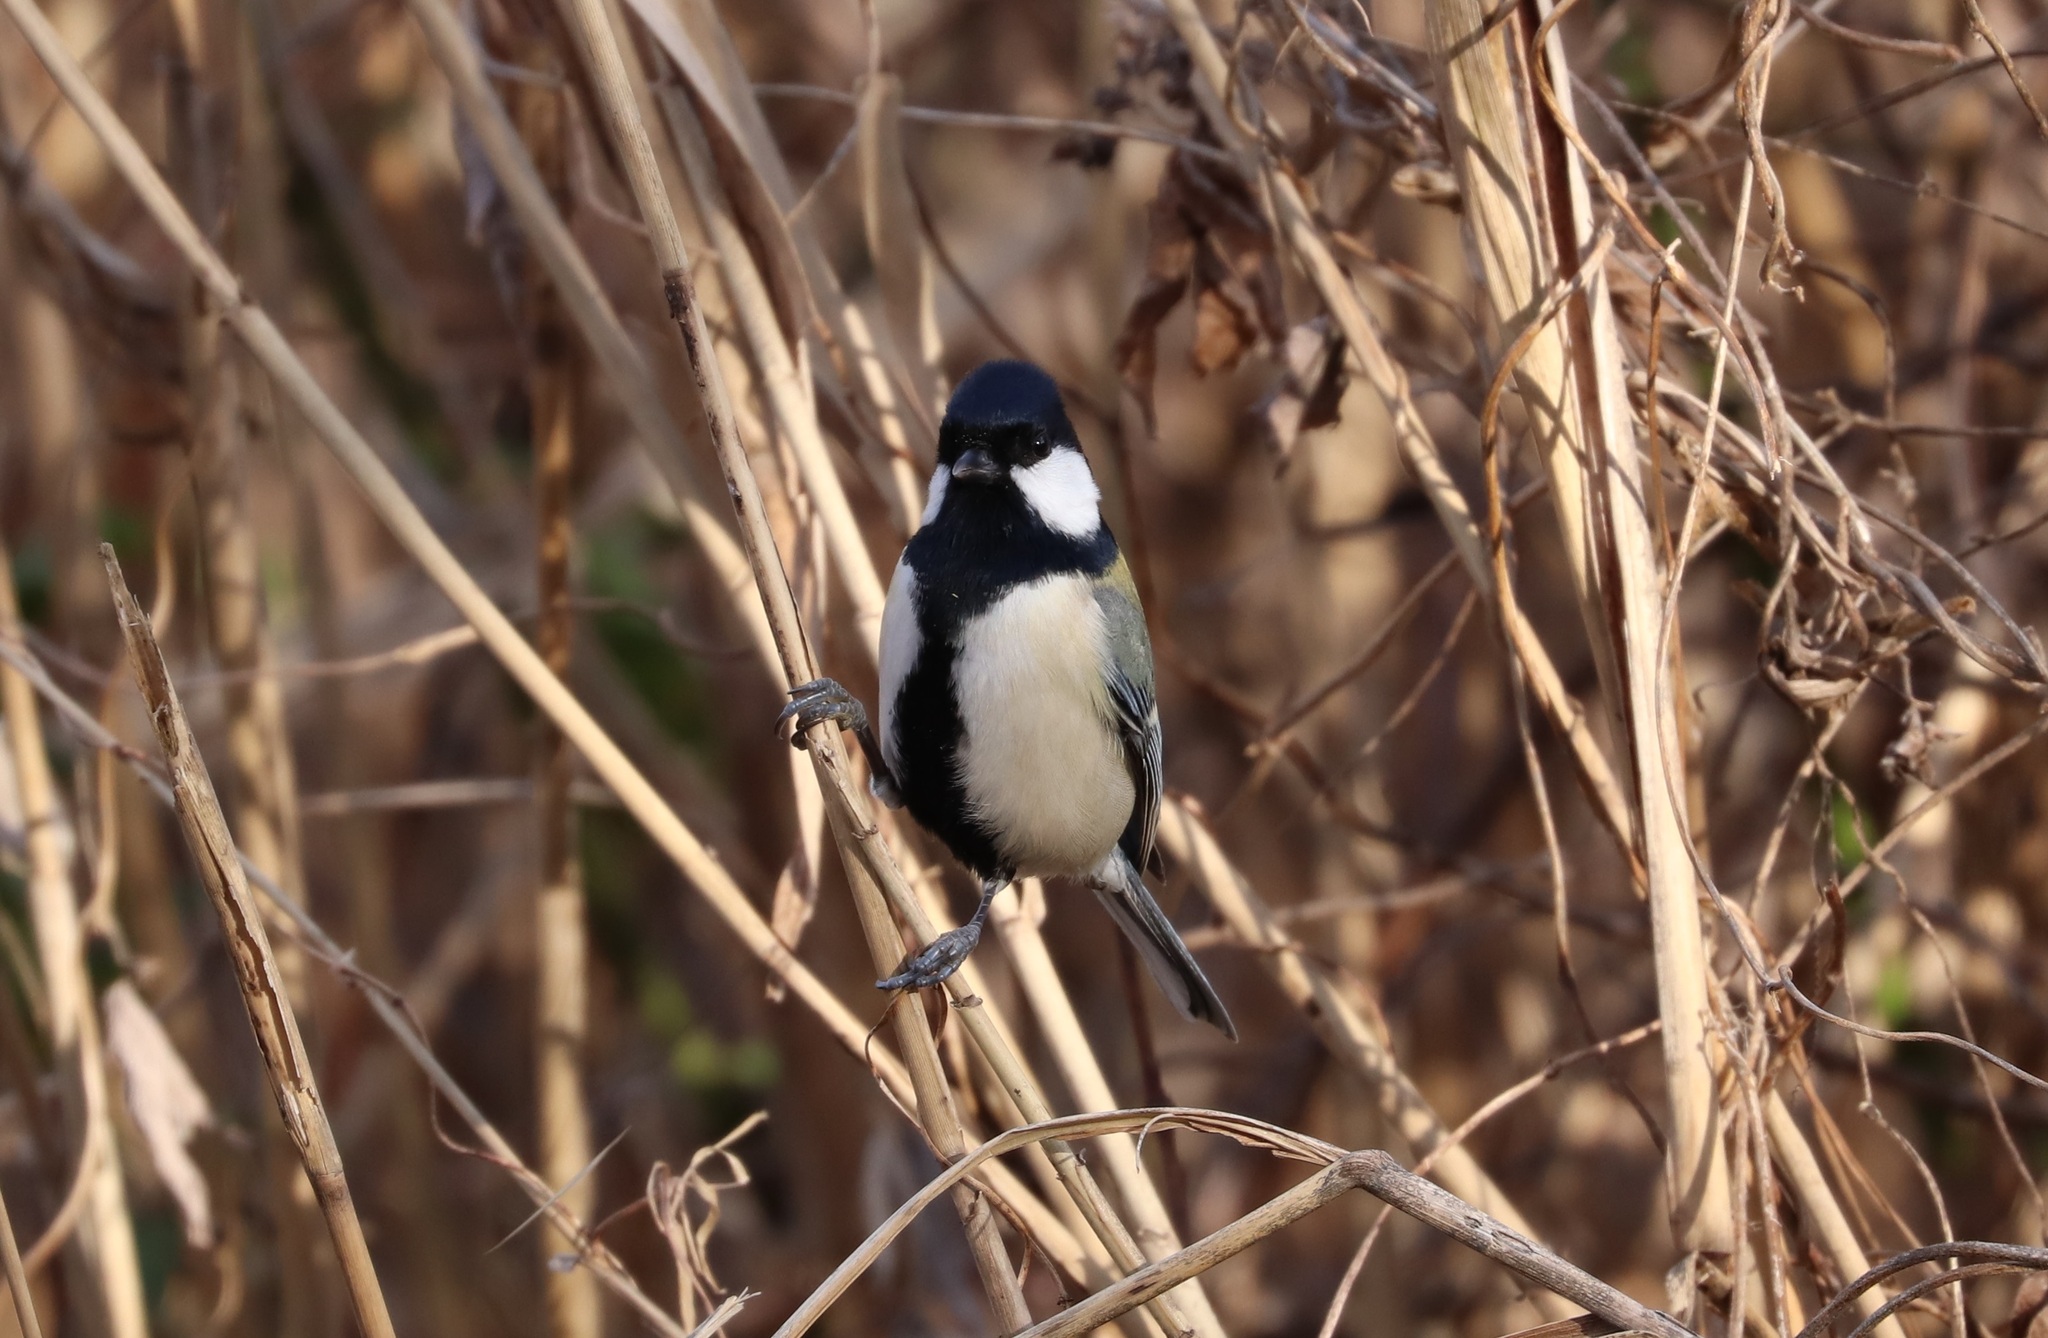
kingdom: Animalia
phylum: Chordata
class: Aves
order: Passeriformes
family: Paridae
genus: Parus
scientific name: Parus minor
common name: Japanese tit
